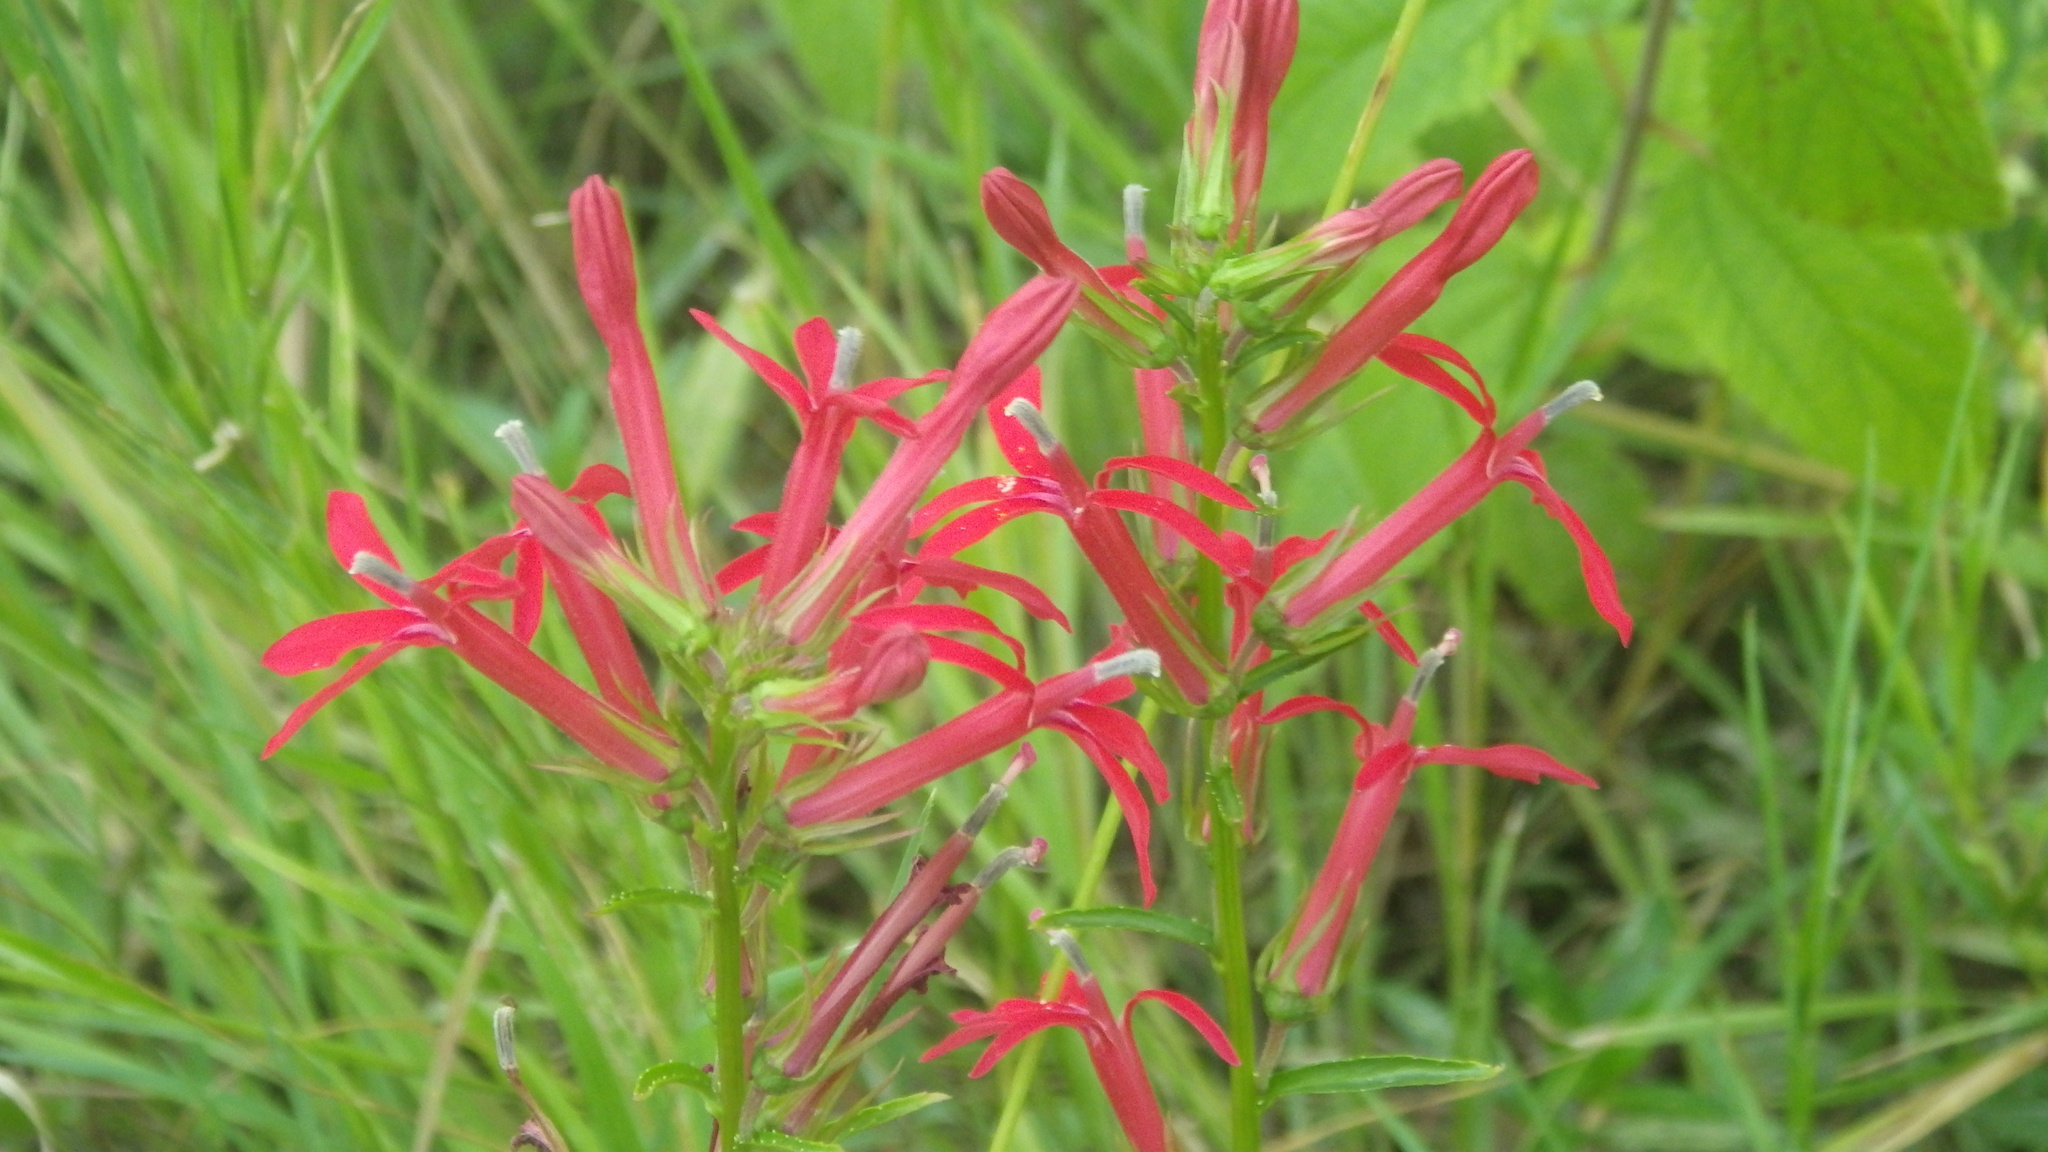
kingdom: Plantae
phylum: Tracheophyta
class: Magnoliopsida
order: Asterales
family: Campanulaceae
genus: Lobelia
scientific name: Lobelia cardinalis
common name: Cardinal flower
